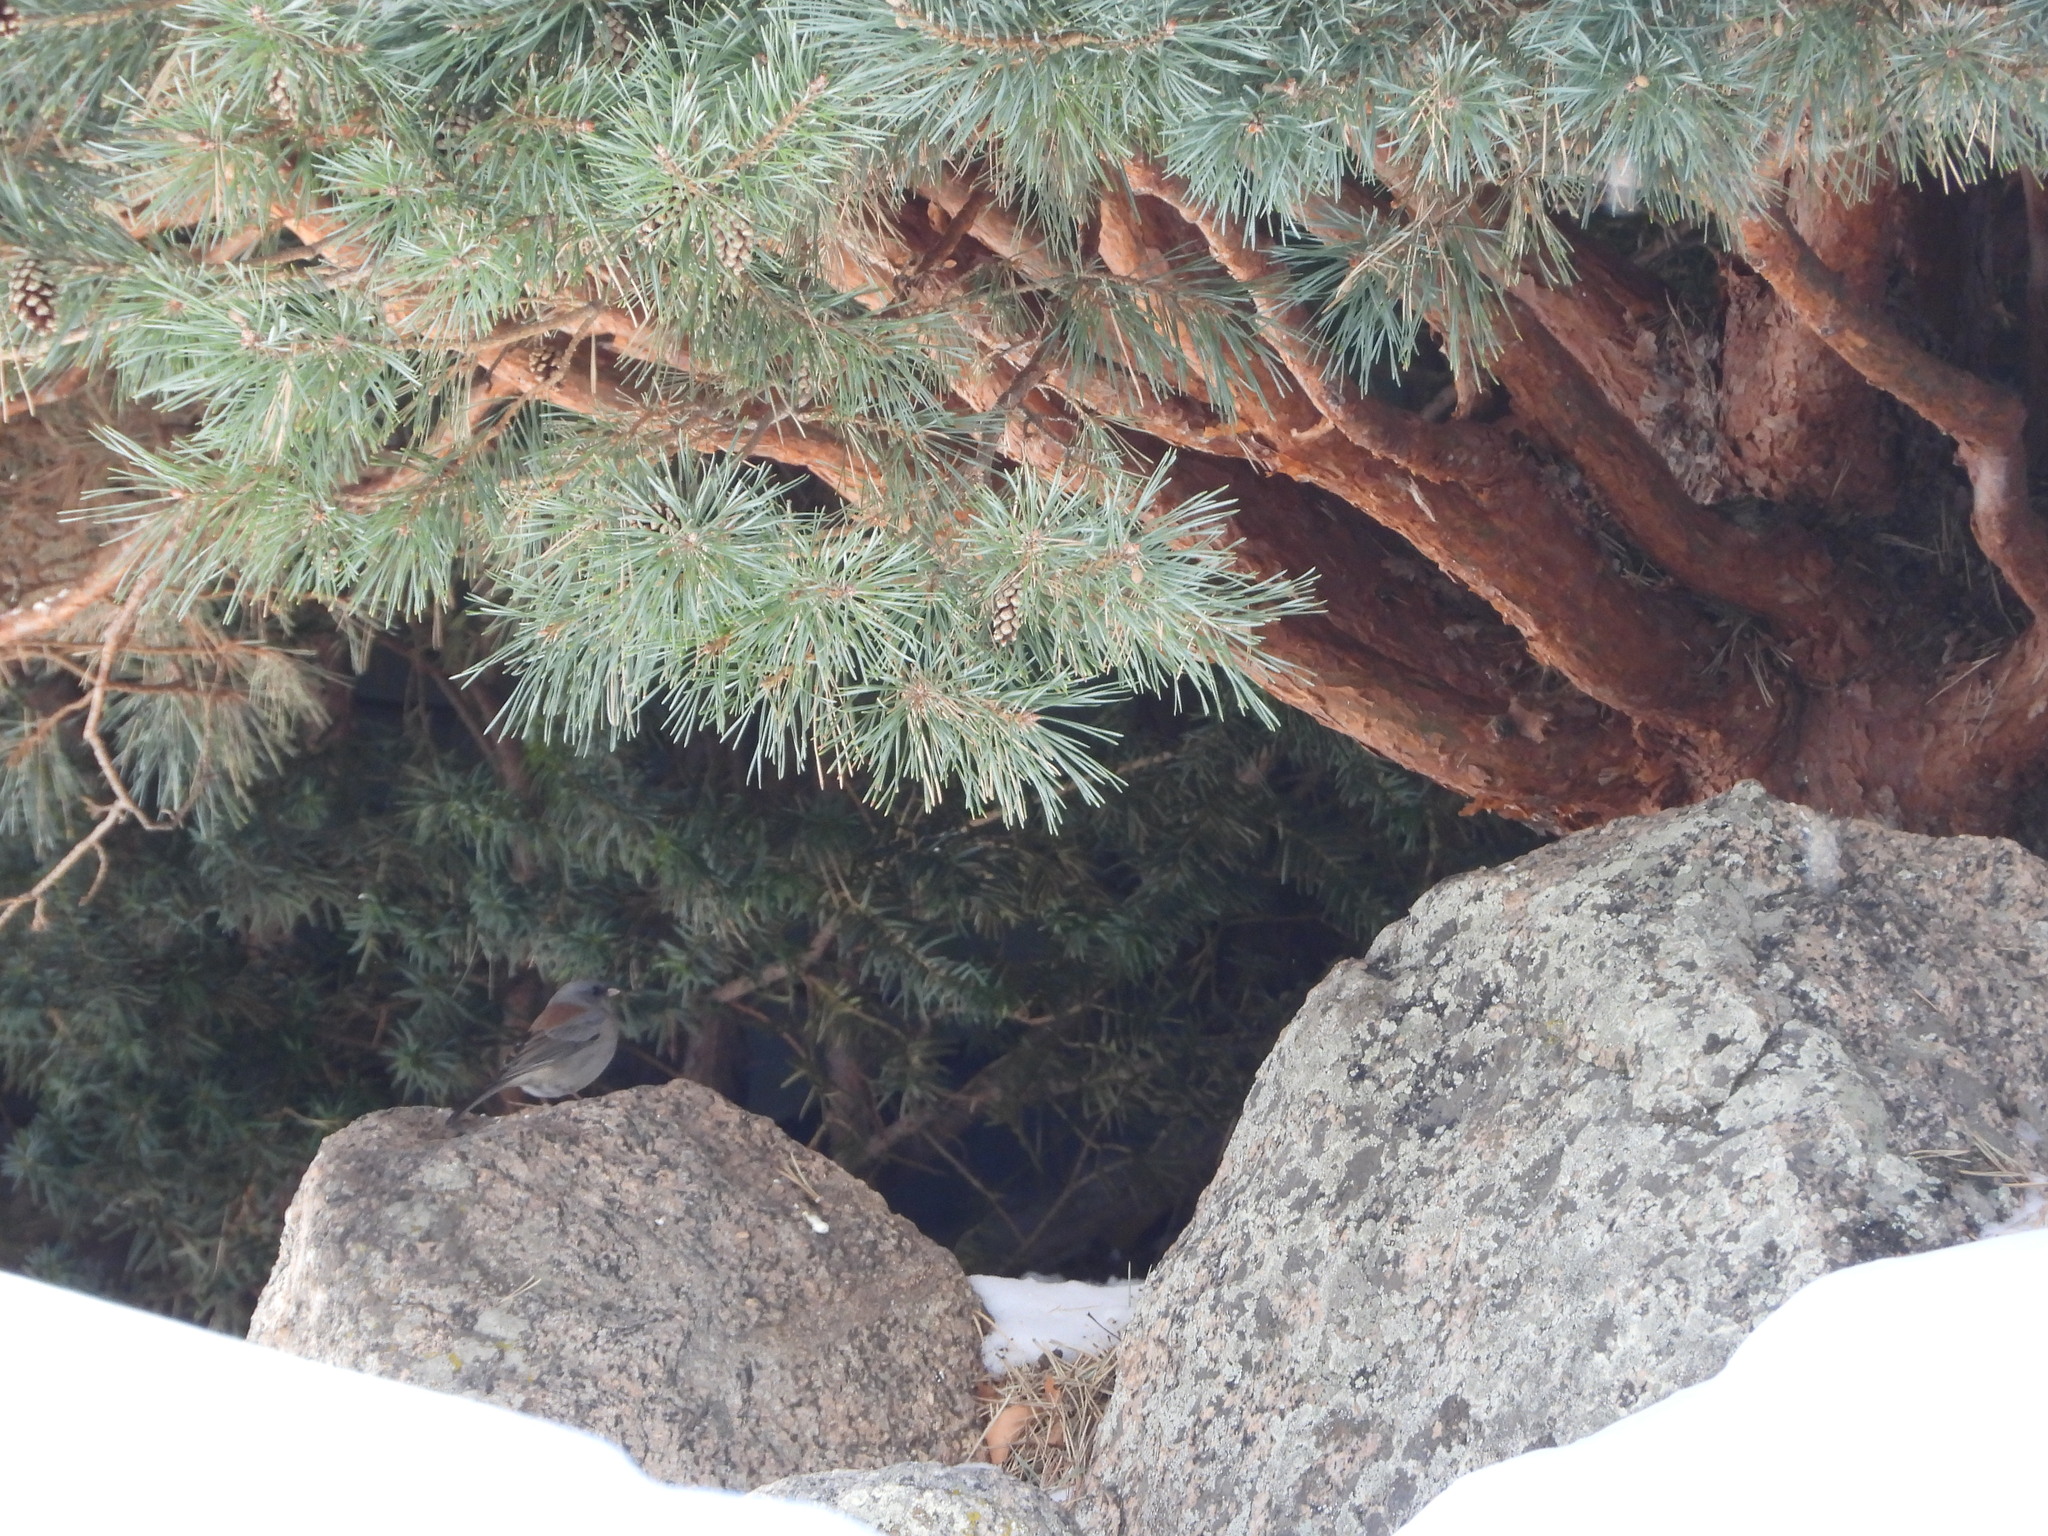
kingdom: Animalia
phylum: Chordata
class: Aves
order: Passeriformes
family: Passerellidae
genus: Junco
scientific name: Junco hyemalis
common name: Dark-eyed junco
